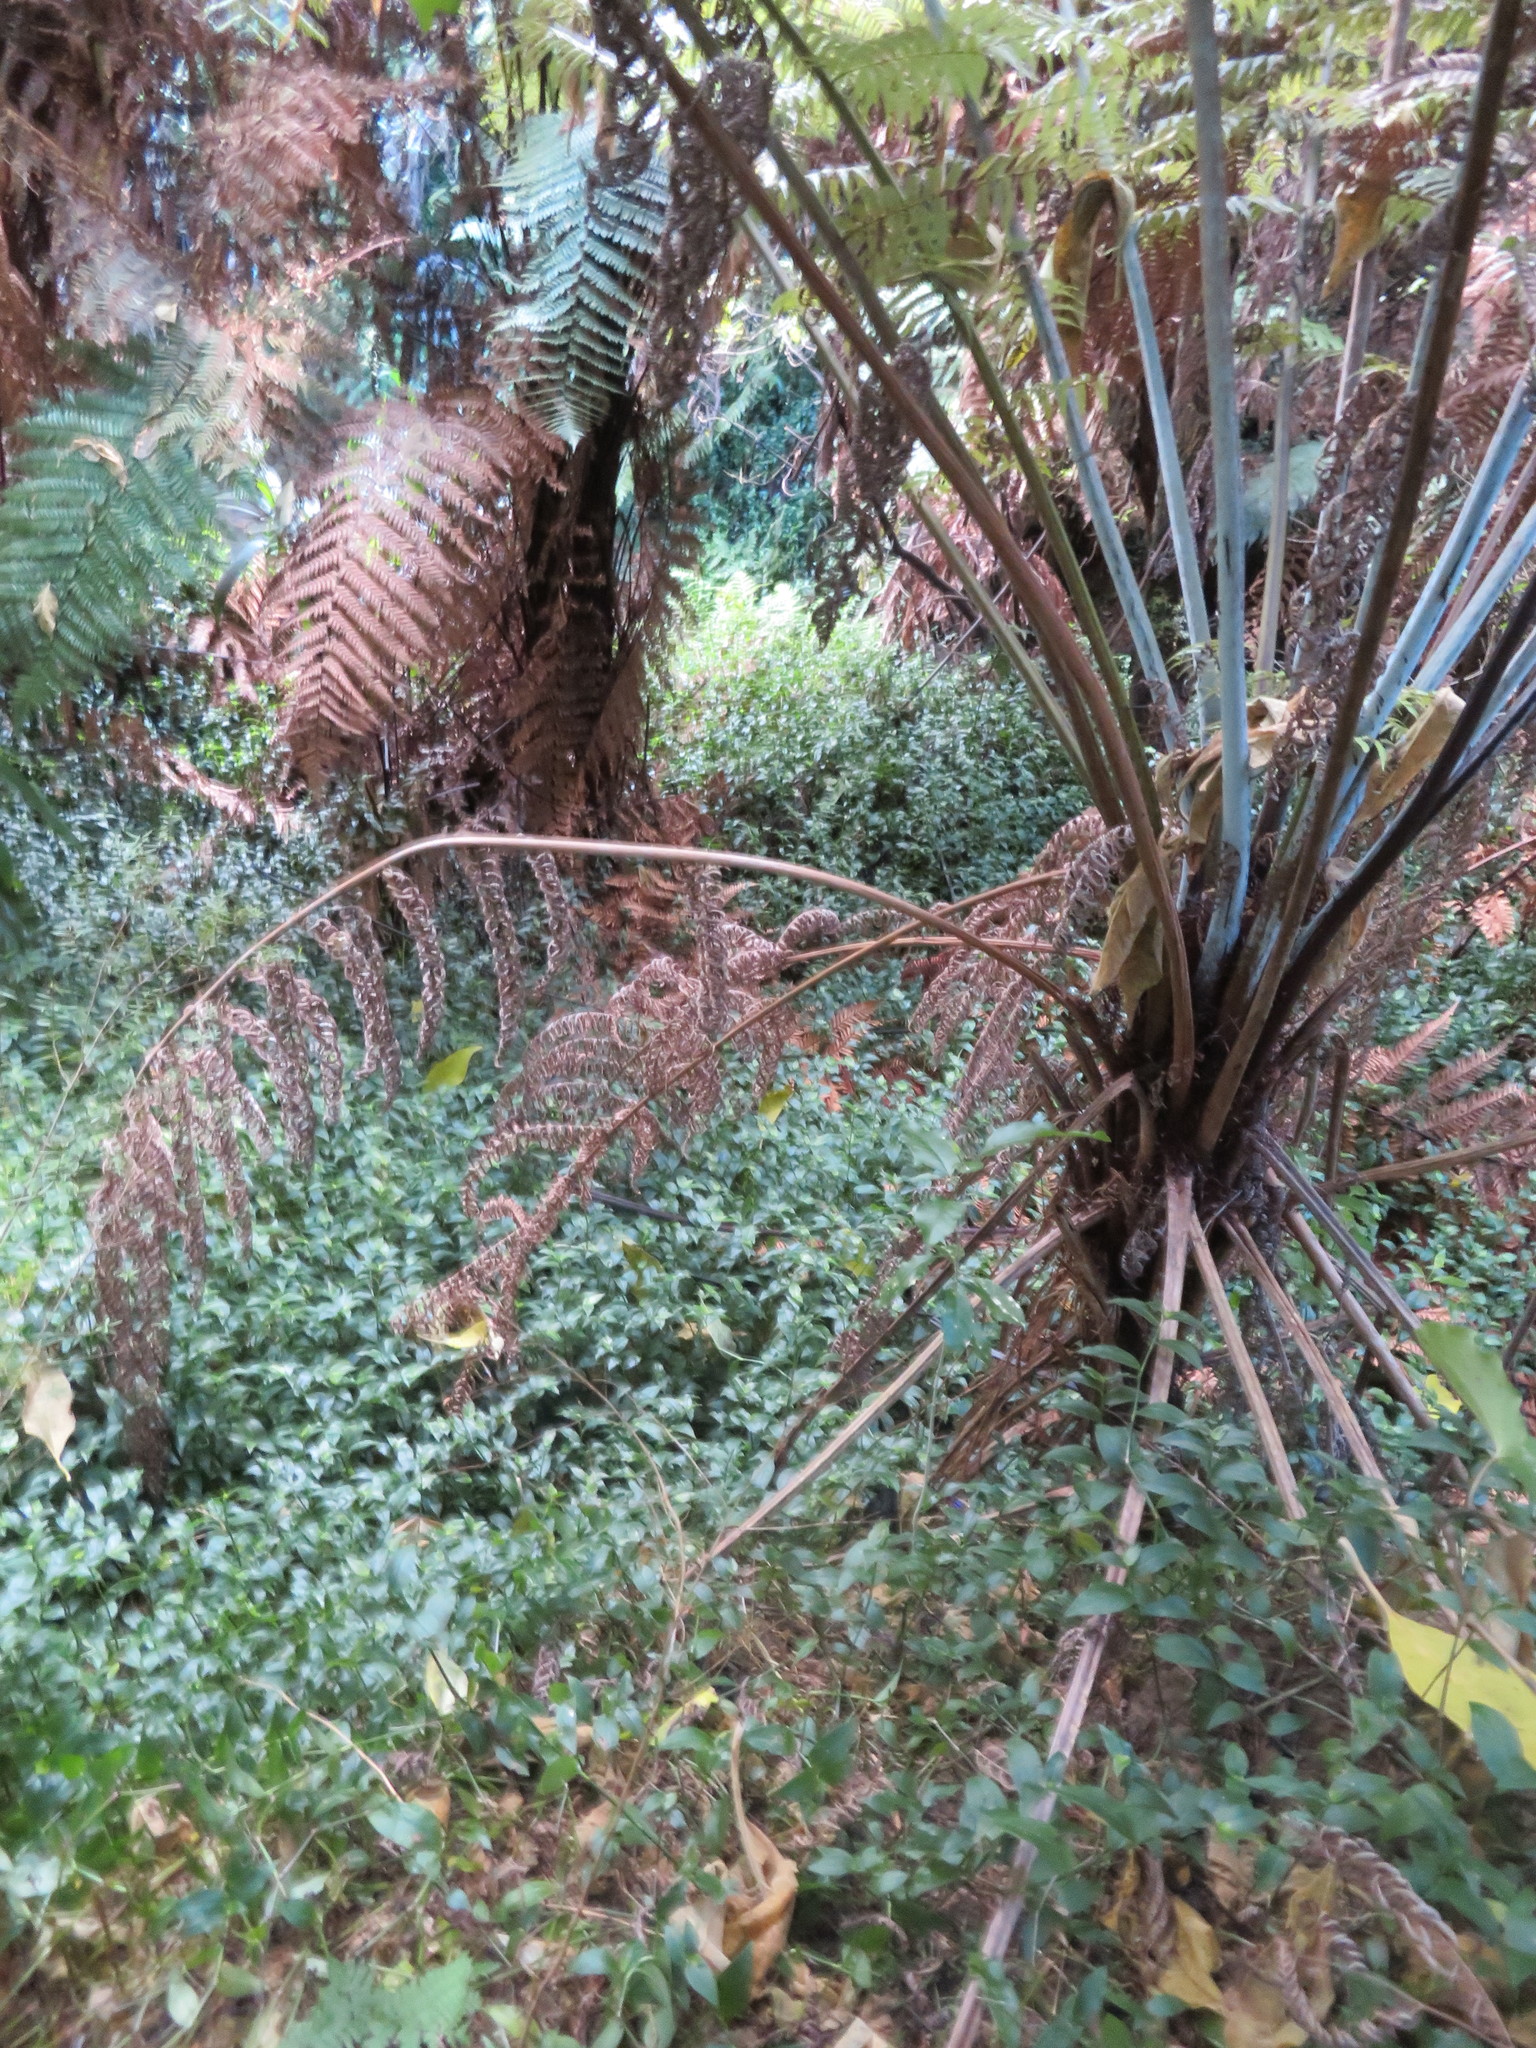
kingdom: Plantae
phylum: Tracheophyta
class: Liliopsida
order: Commelinales
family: Commelinaceae
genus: Tradescantia
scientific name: Tradescantia fluminensis
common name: Wandering-jew
